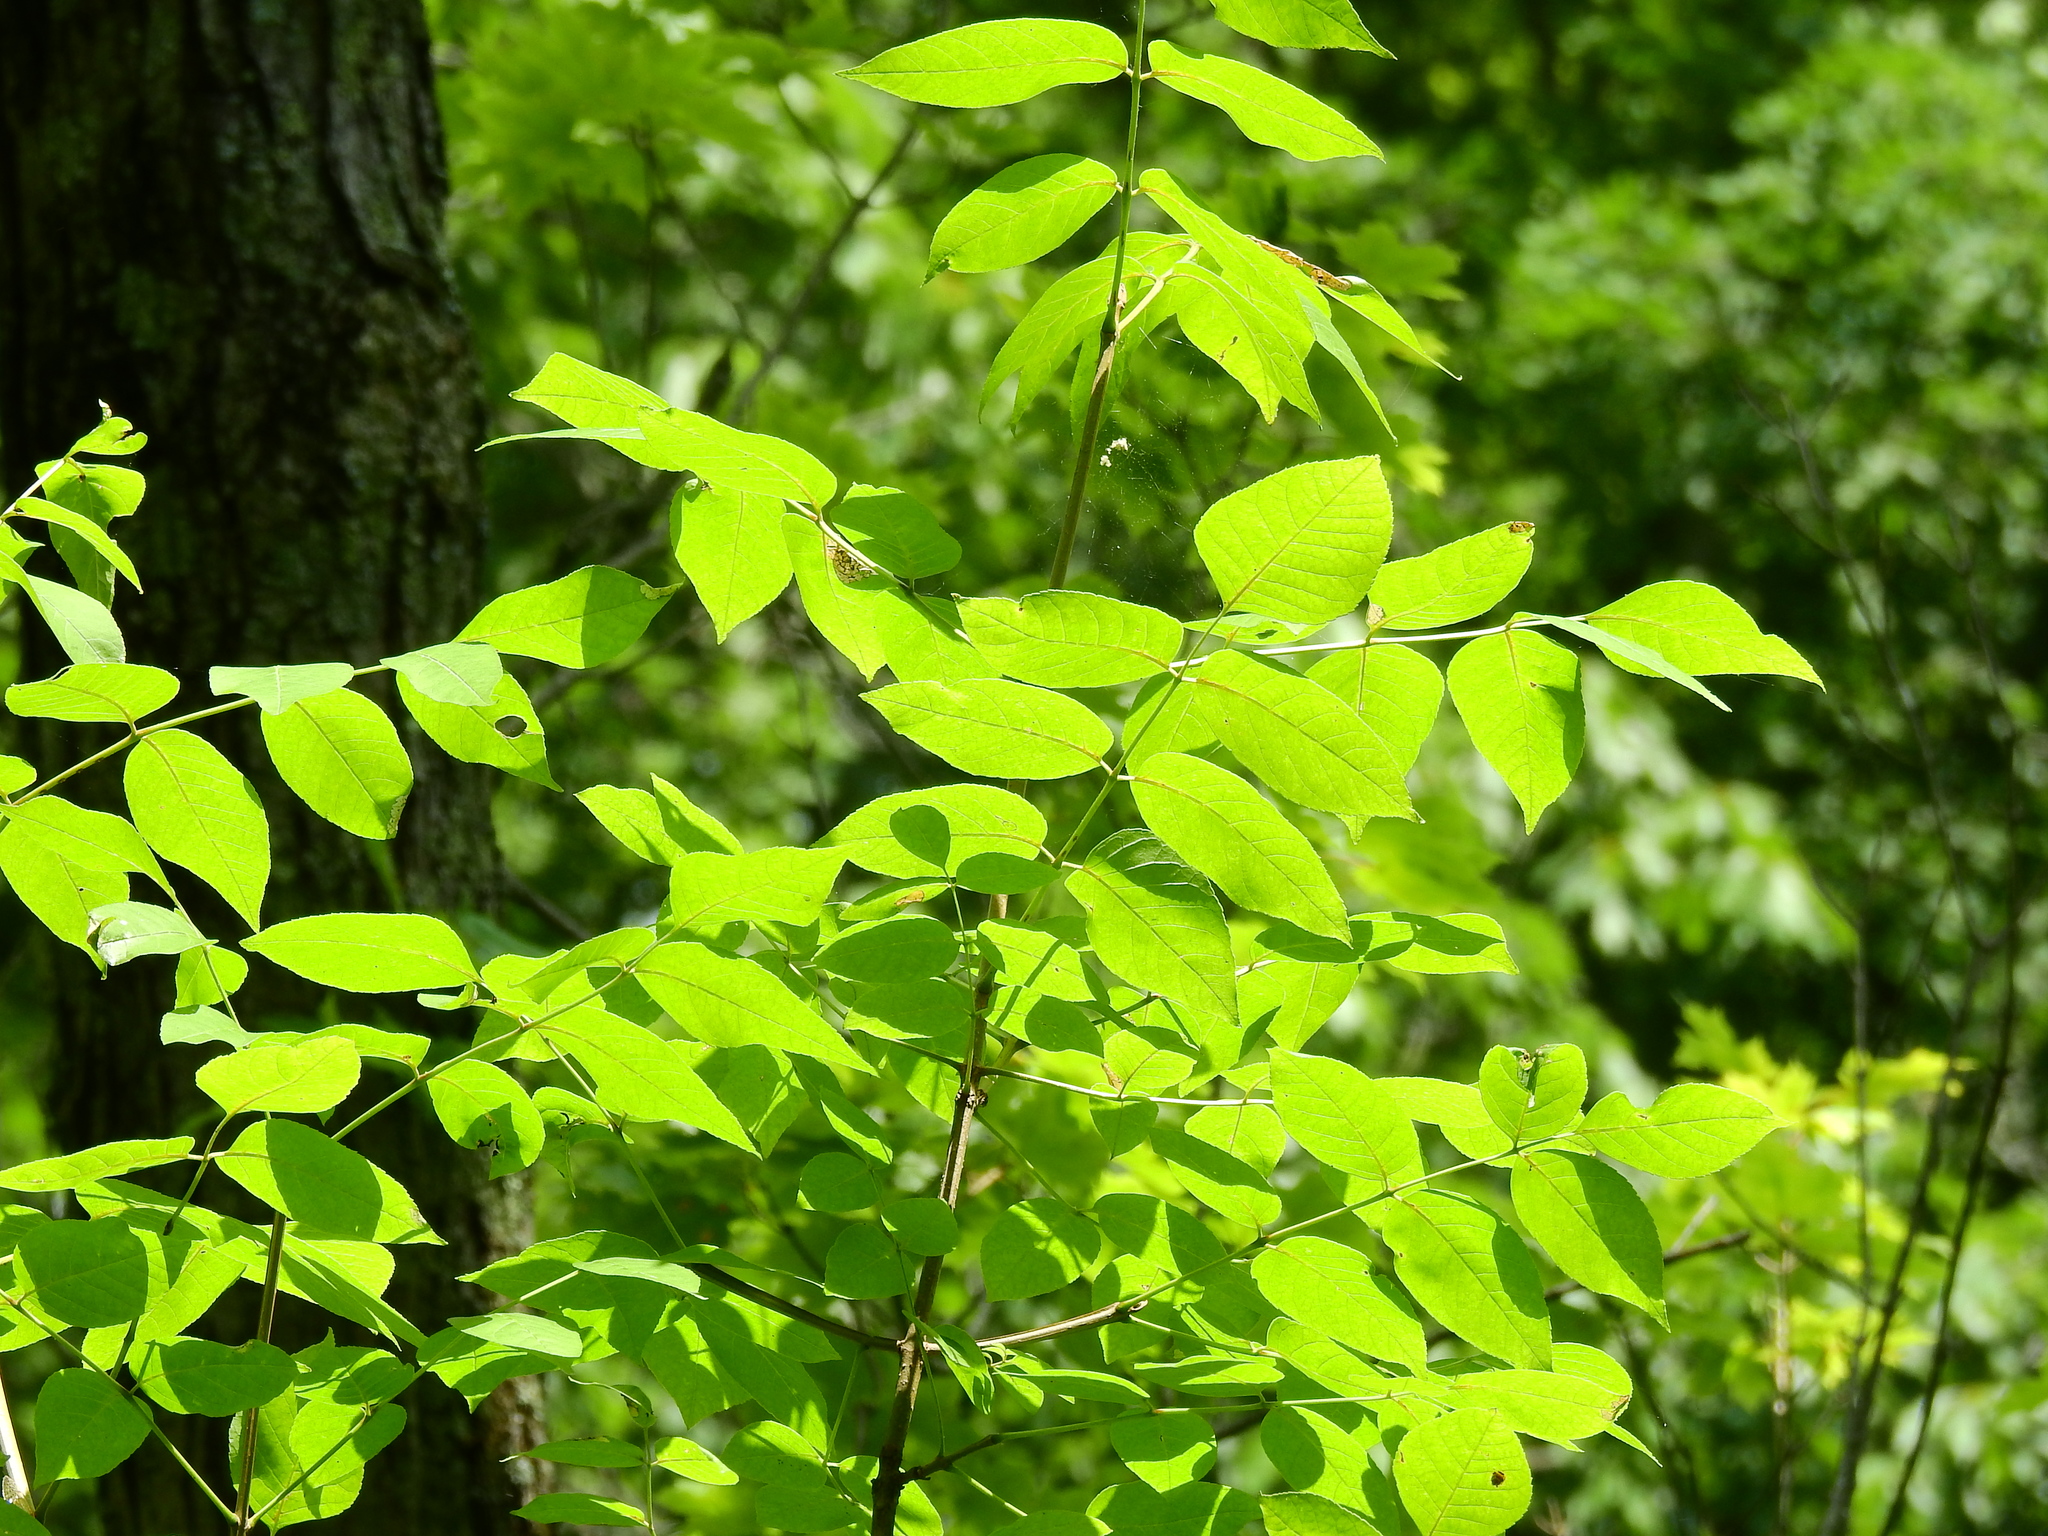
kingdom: Plantae
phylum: Tracheophyta
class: Magnoliopsida
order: Lamiales
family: Oleaceae
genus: Fraxinus
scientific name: Fraxinus quadrangulata
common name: Blue ash
